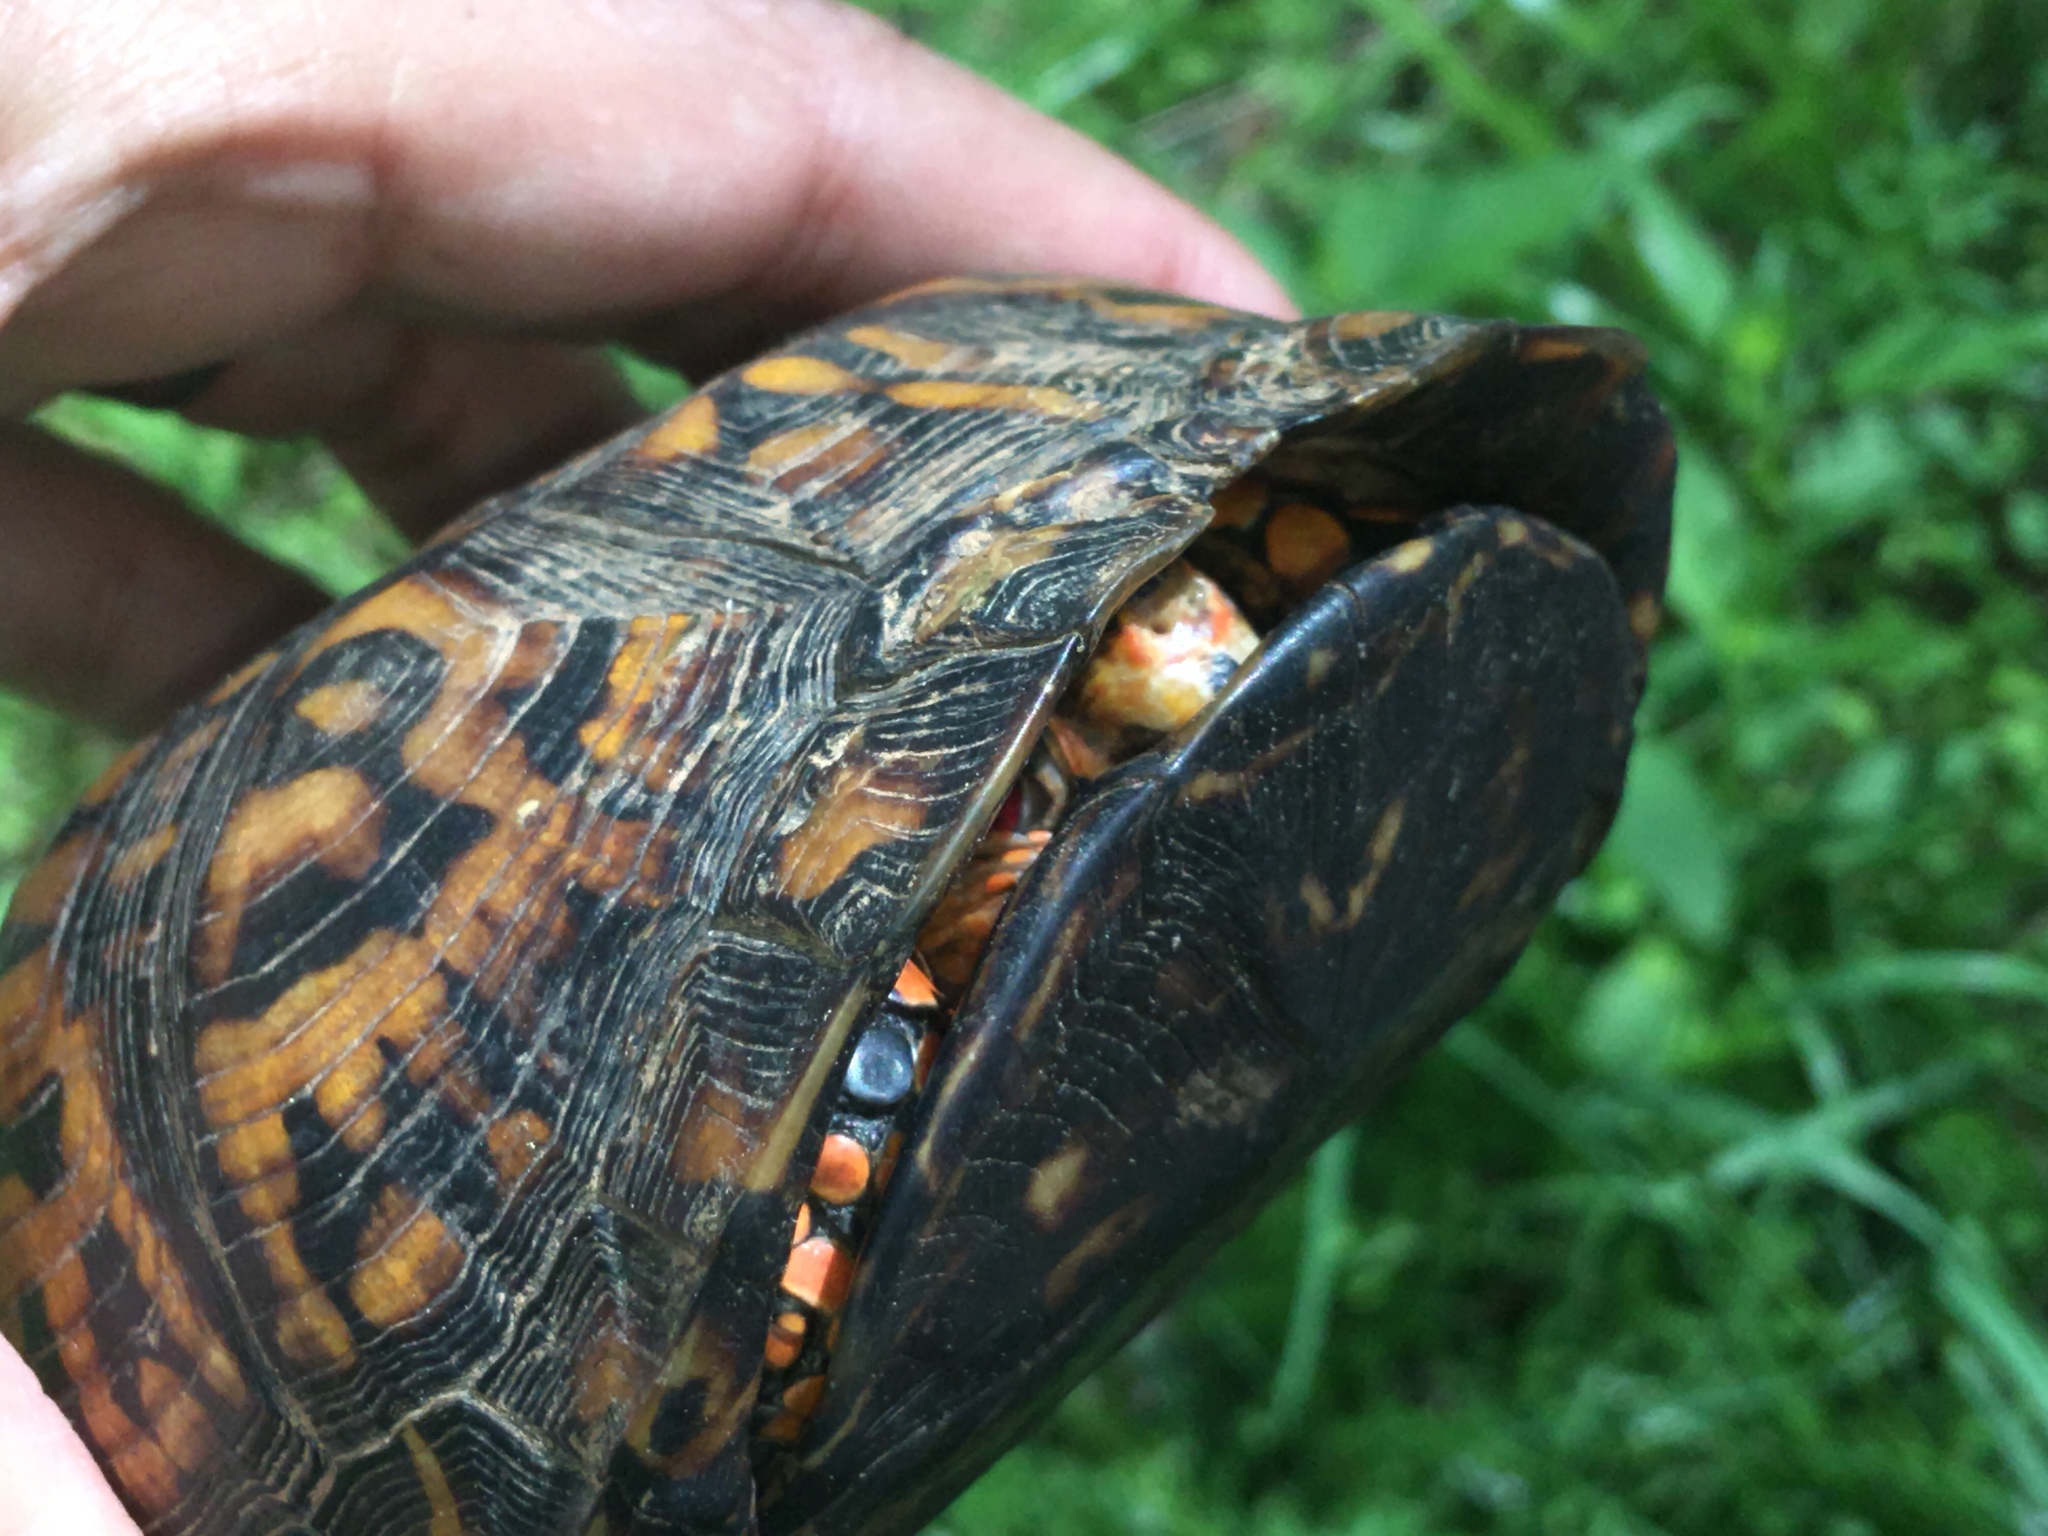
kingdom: Animalia
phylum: Chordata
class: Testudines
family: Emydidae
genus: Terrapene
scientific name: Terrapene carolina
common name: Common box turtle
